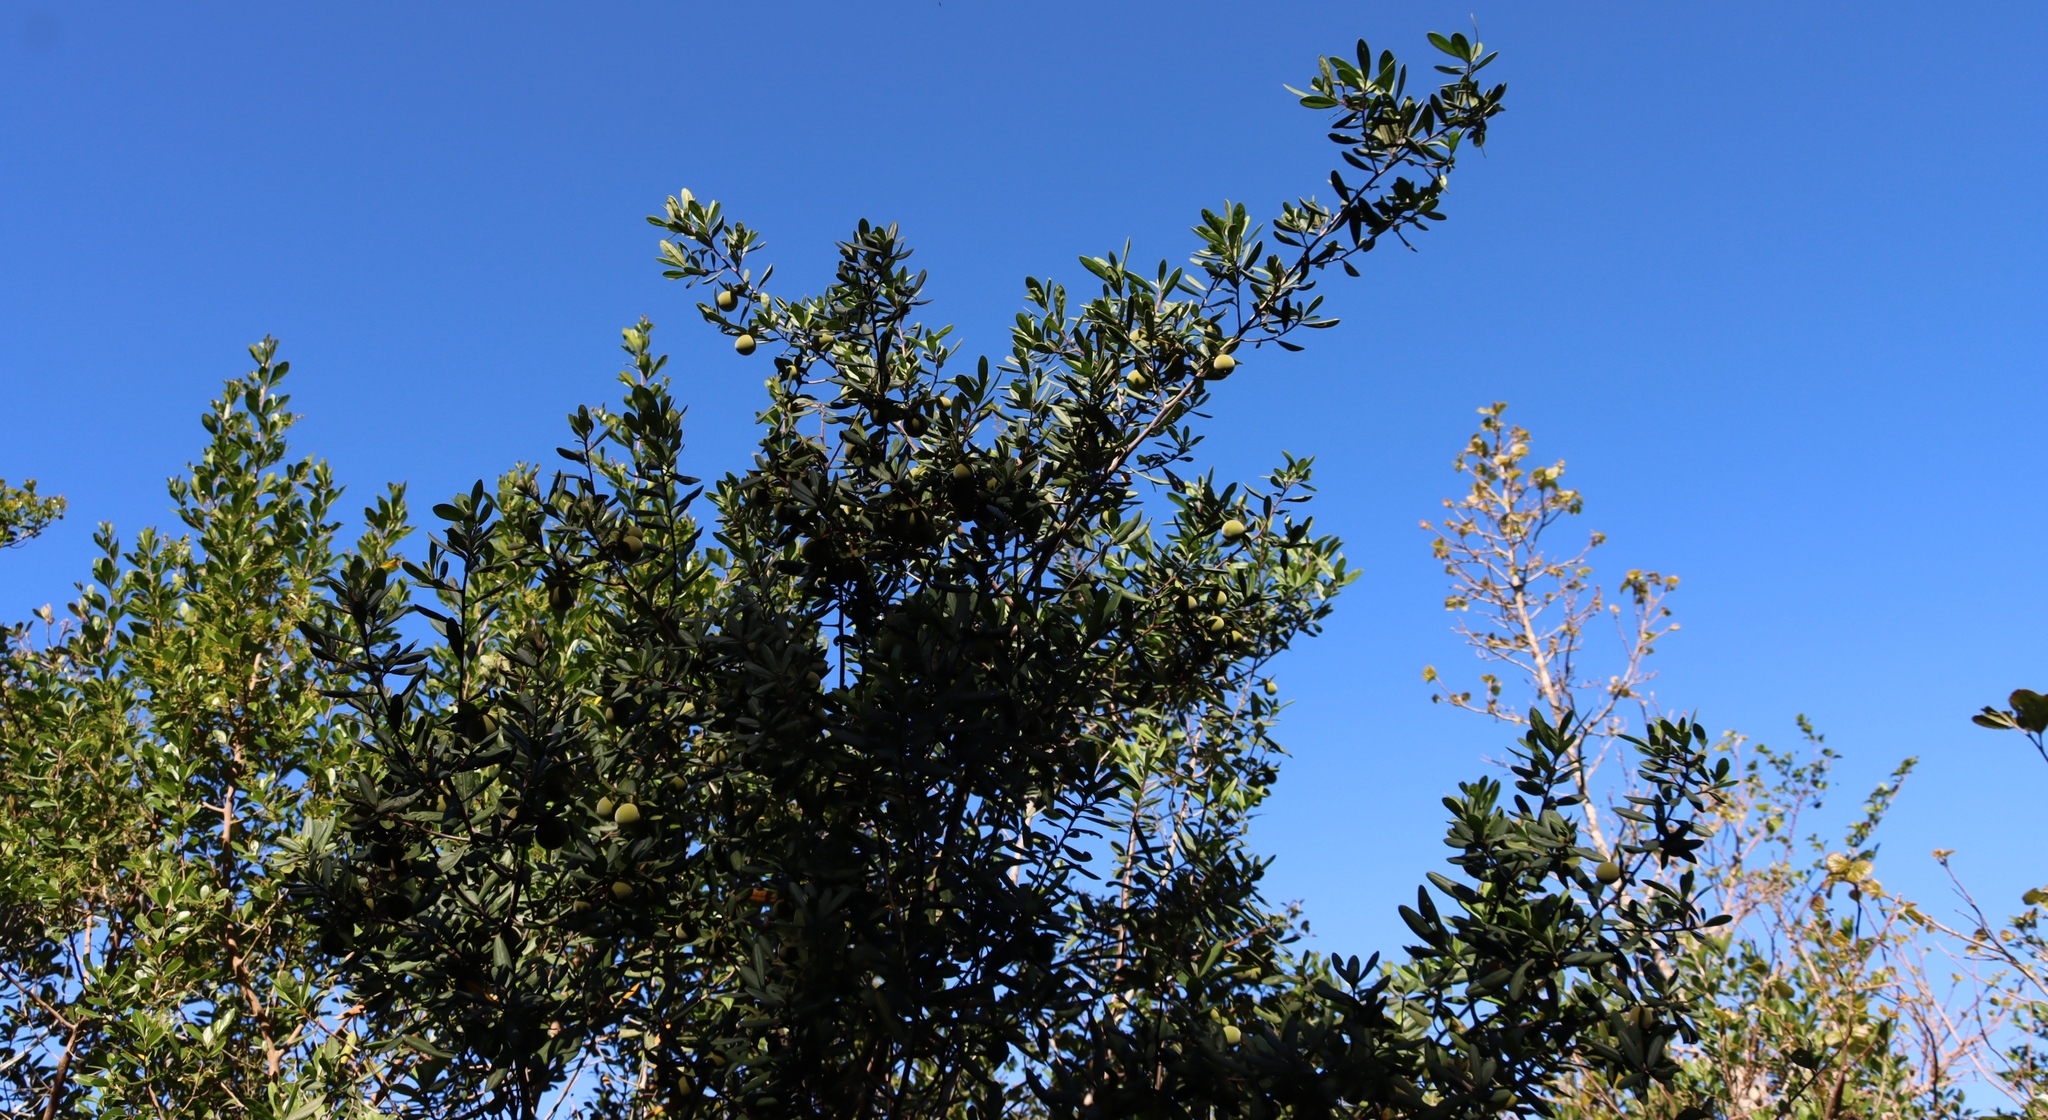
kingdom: Plantae
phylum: Tracheophyta
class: Magnoliopsida
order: Ericales
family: Ebenaceae
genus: Diospyros
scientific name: Diospyros dichrophylla
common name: Common star-apple
